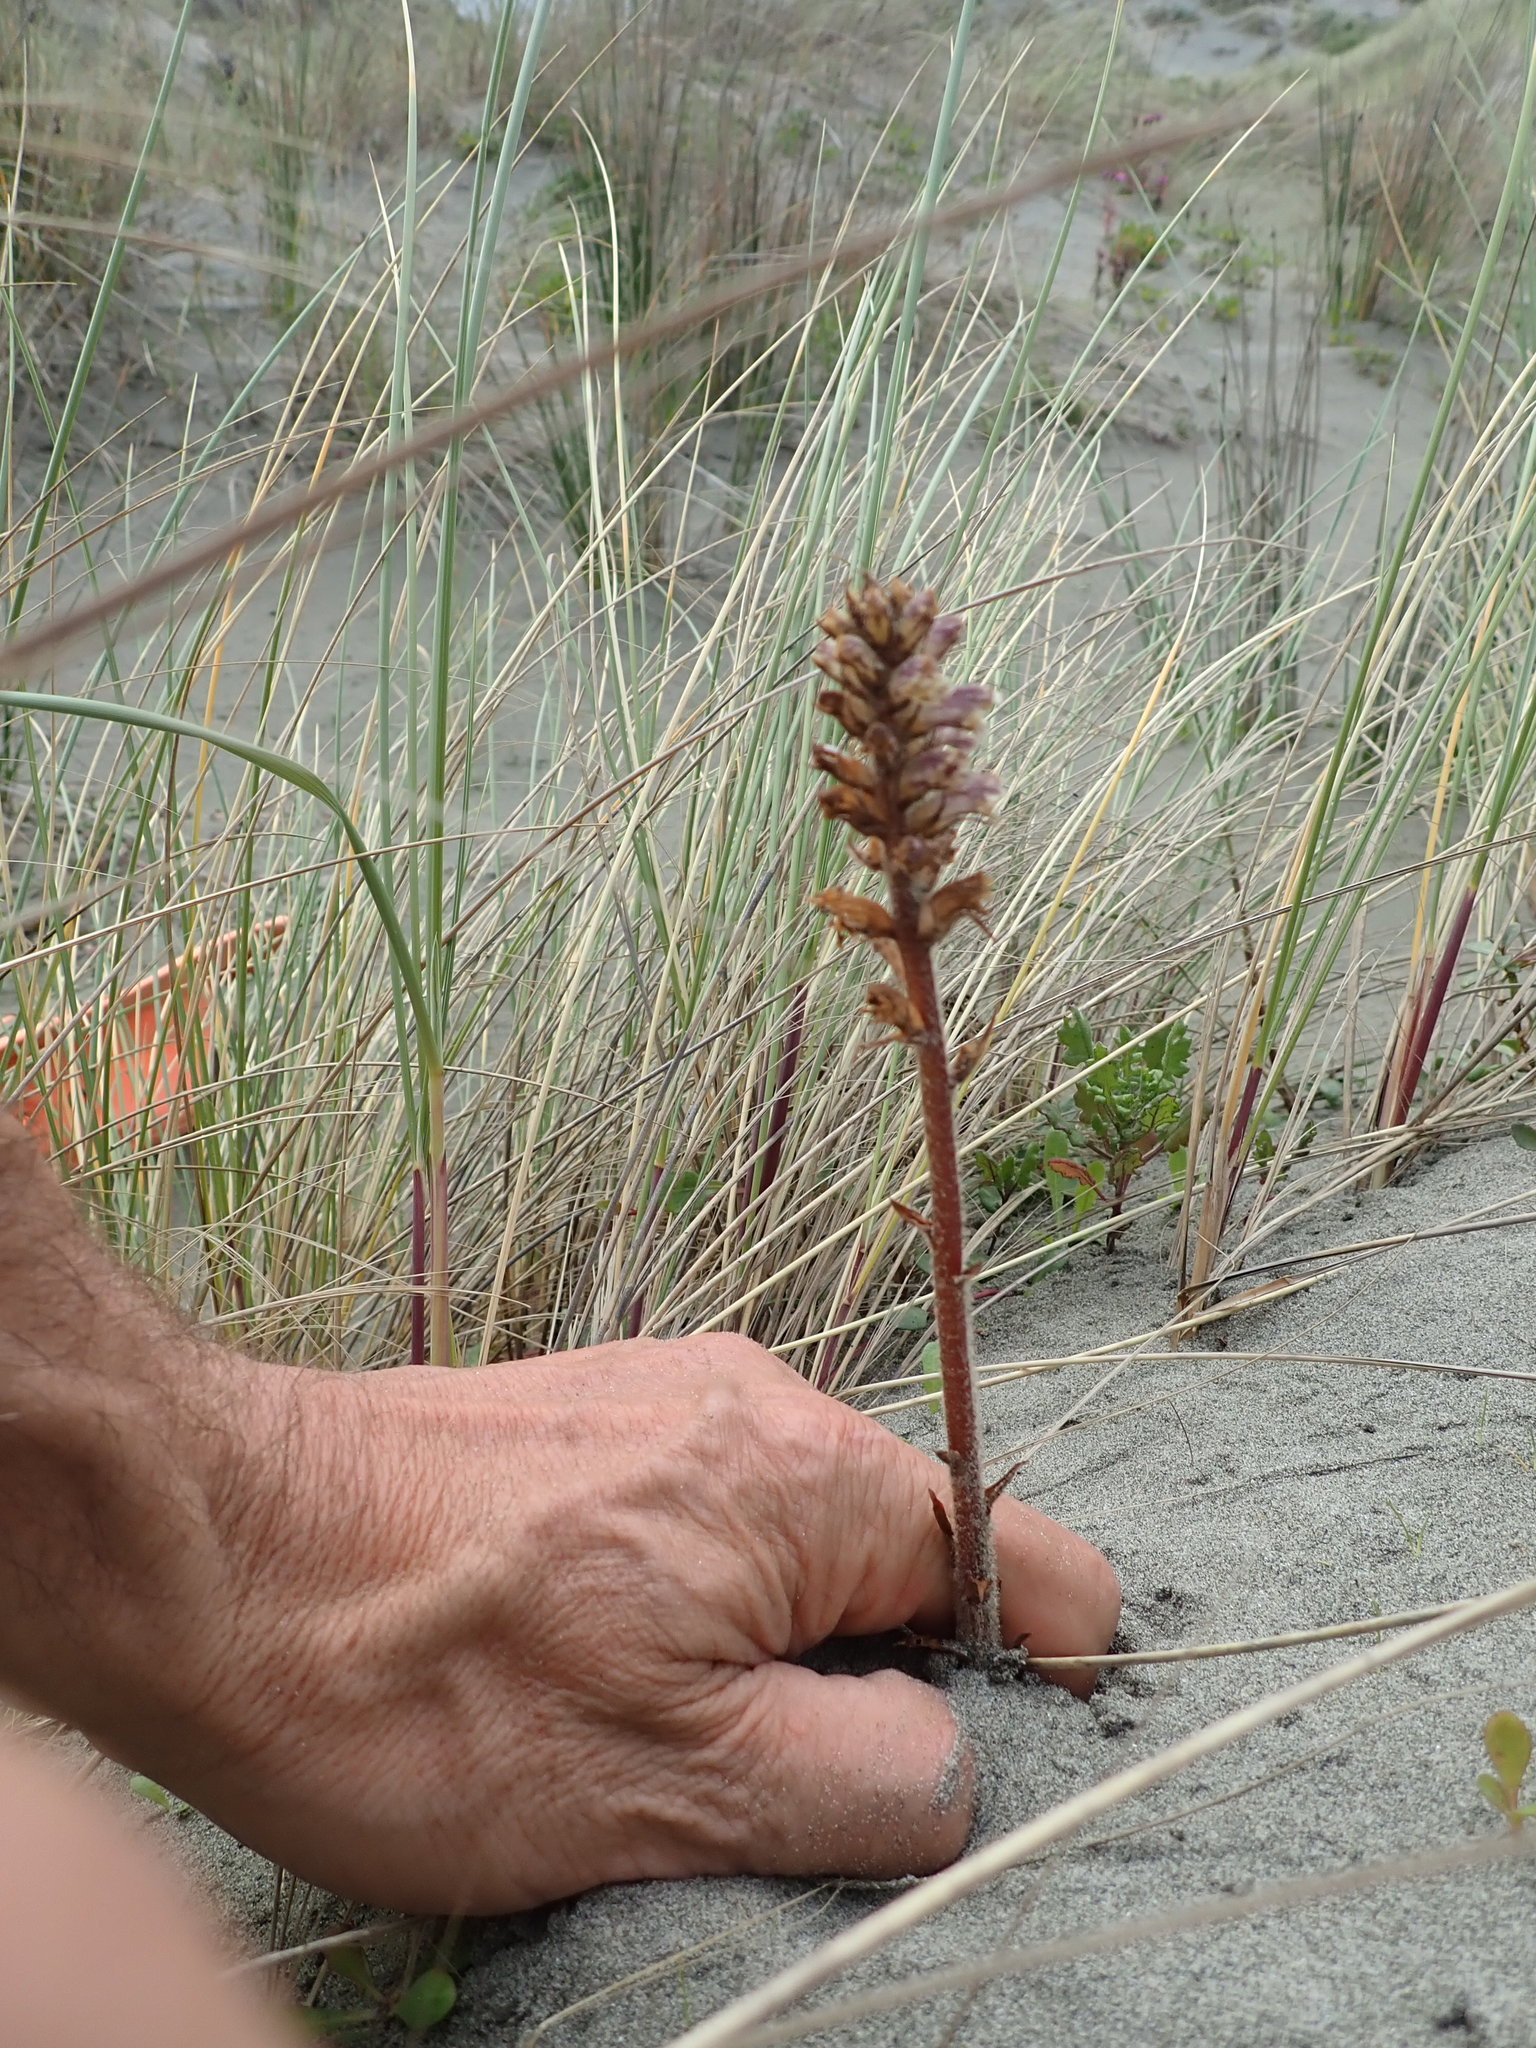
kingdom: Plantae
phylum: Tracheophyta
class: Magnoliopsida
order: Lamiales
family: Orobanchaceae
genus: Orobanche
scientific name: Orobanche minor
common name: Common broomrape
